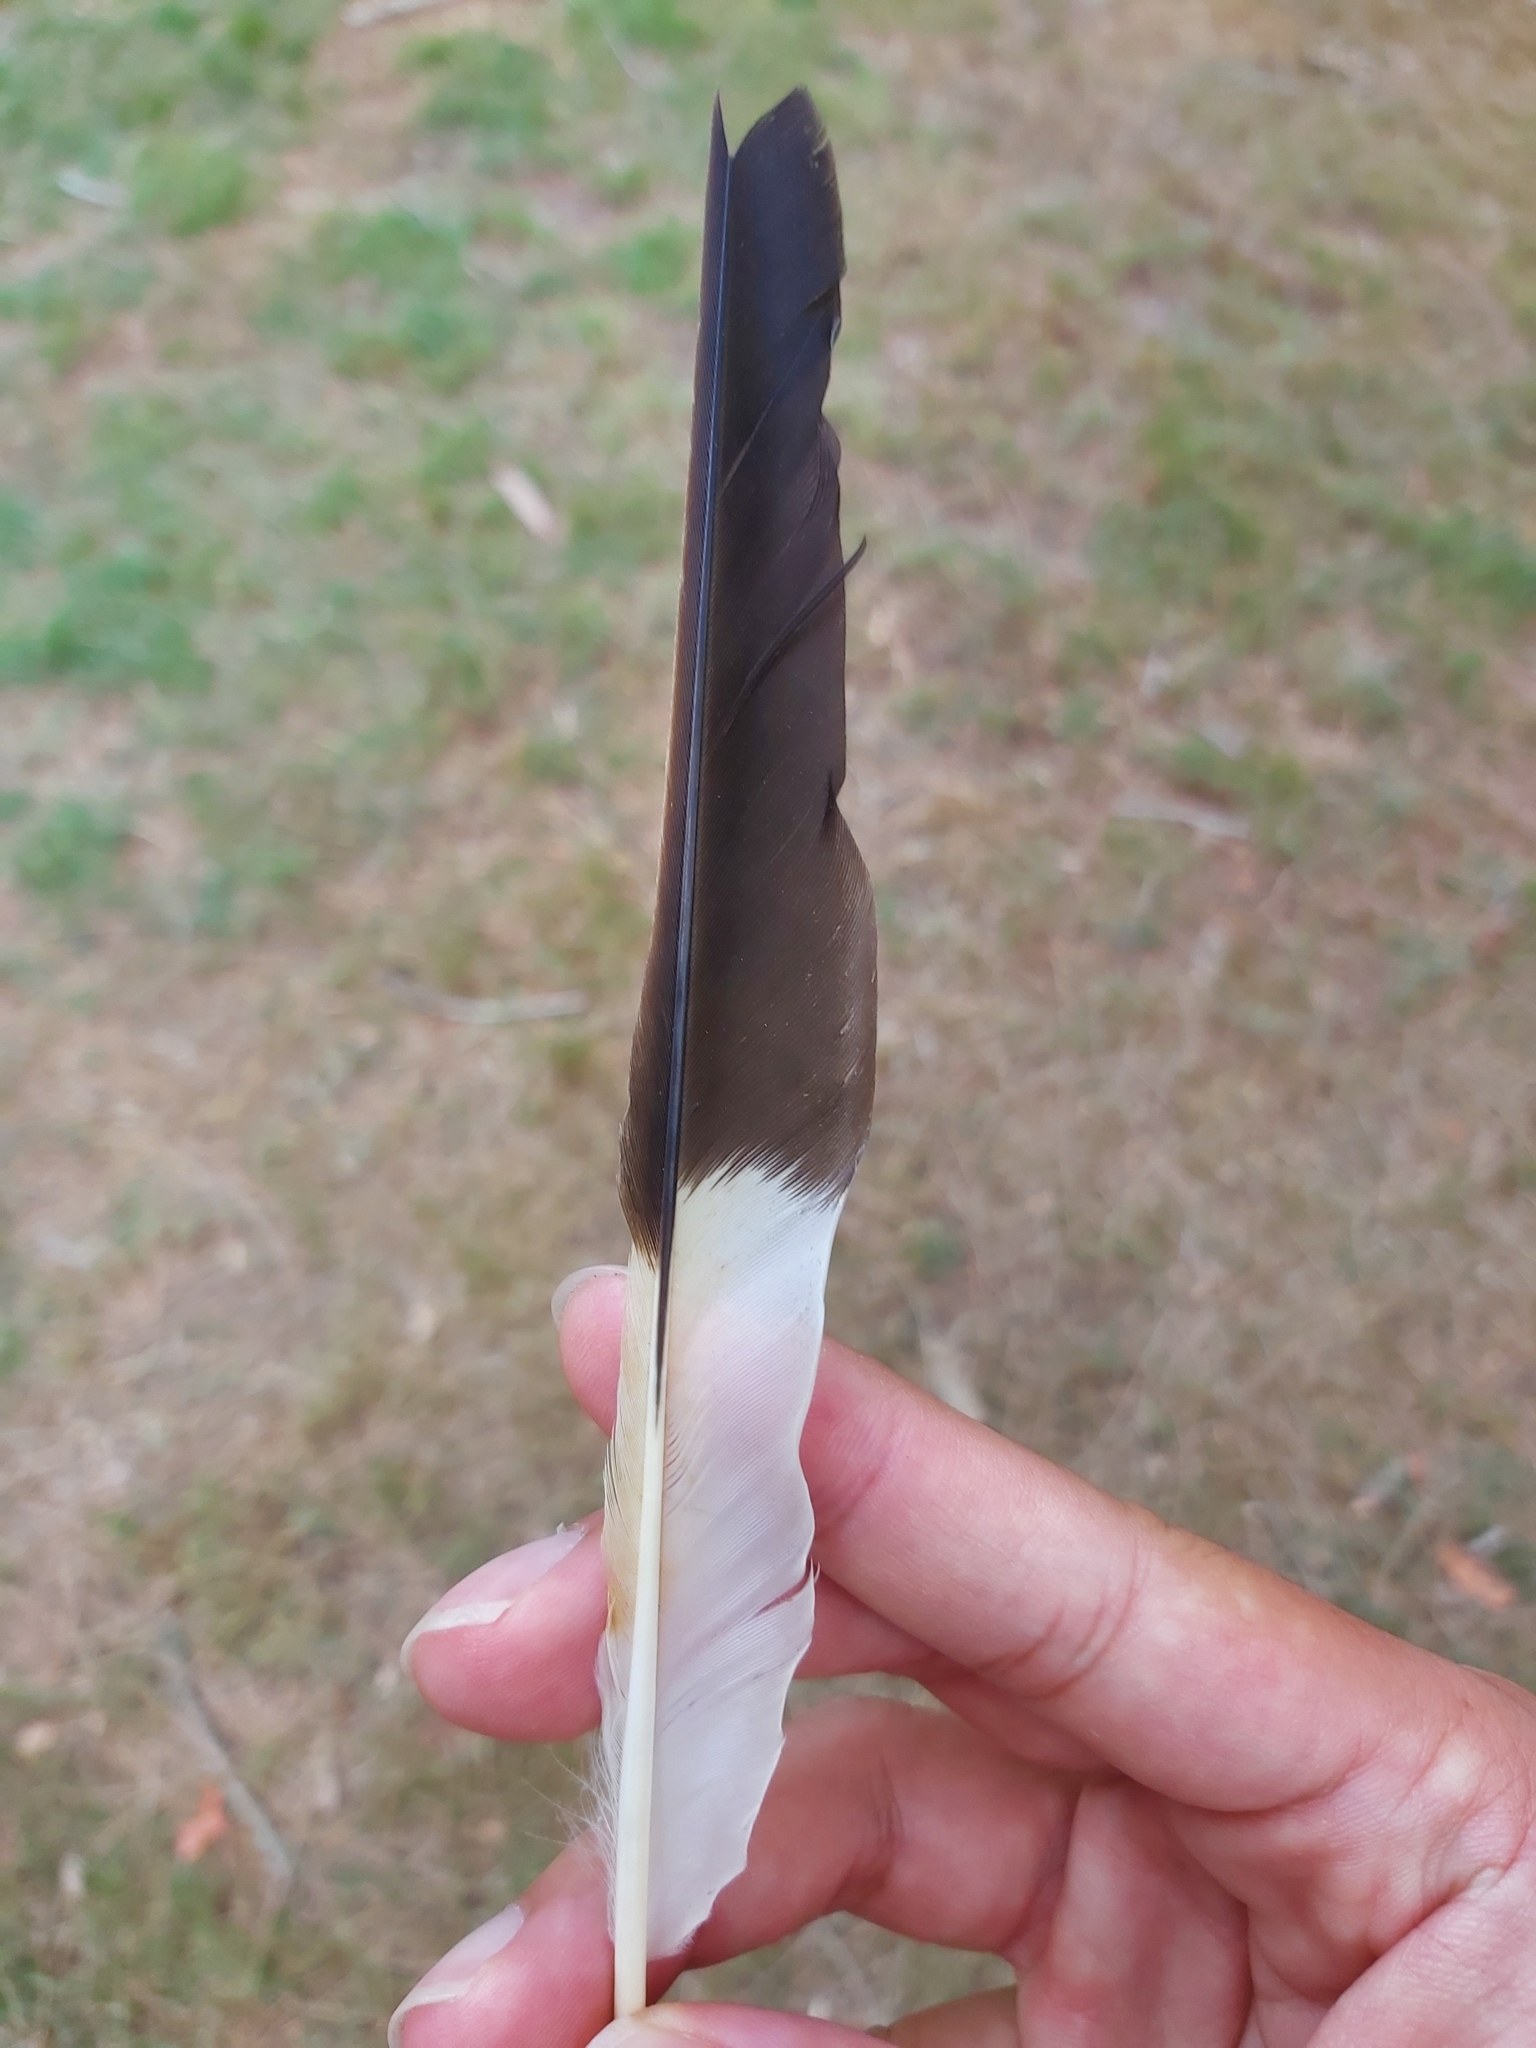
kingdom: Animalia
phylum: Chordata
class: Aves
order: Passeriformes
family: Cracticidae
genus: Strepera
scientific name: Strepera graculina
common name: Pied currawong
